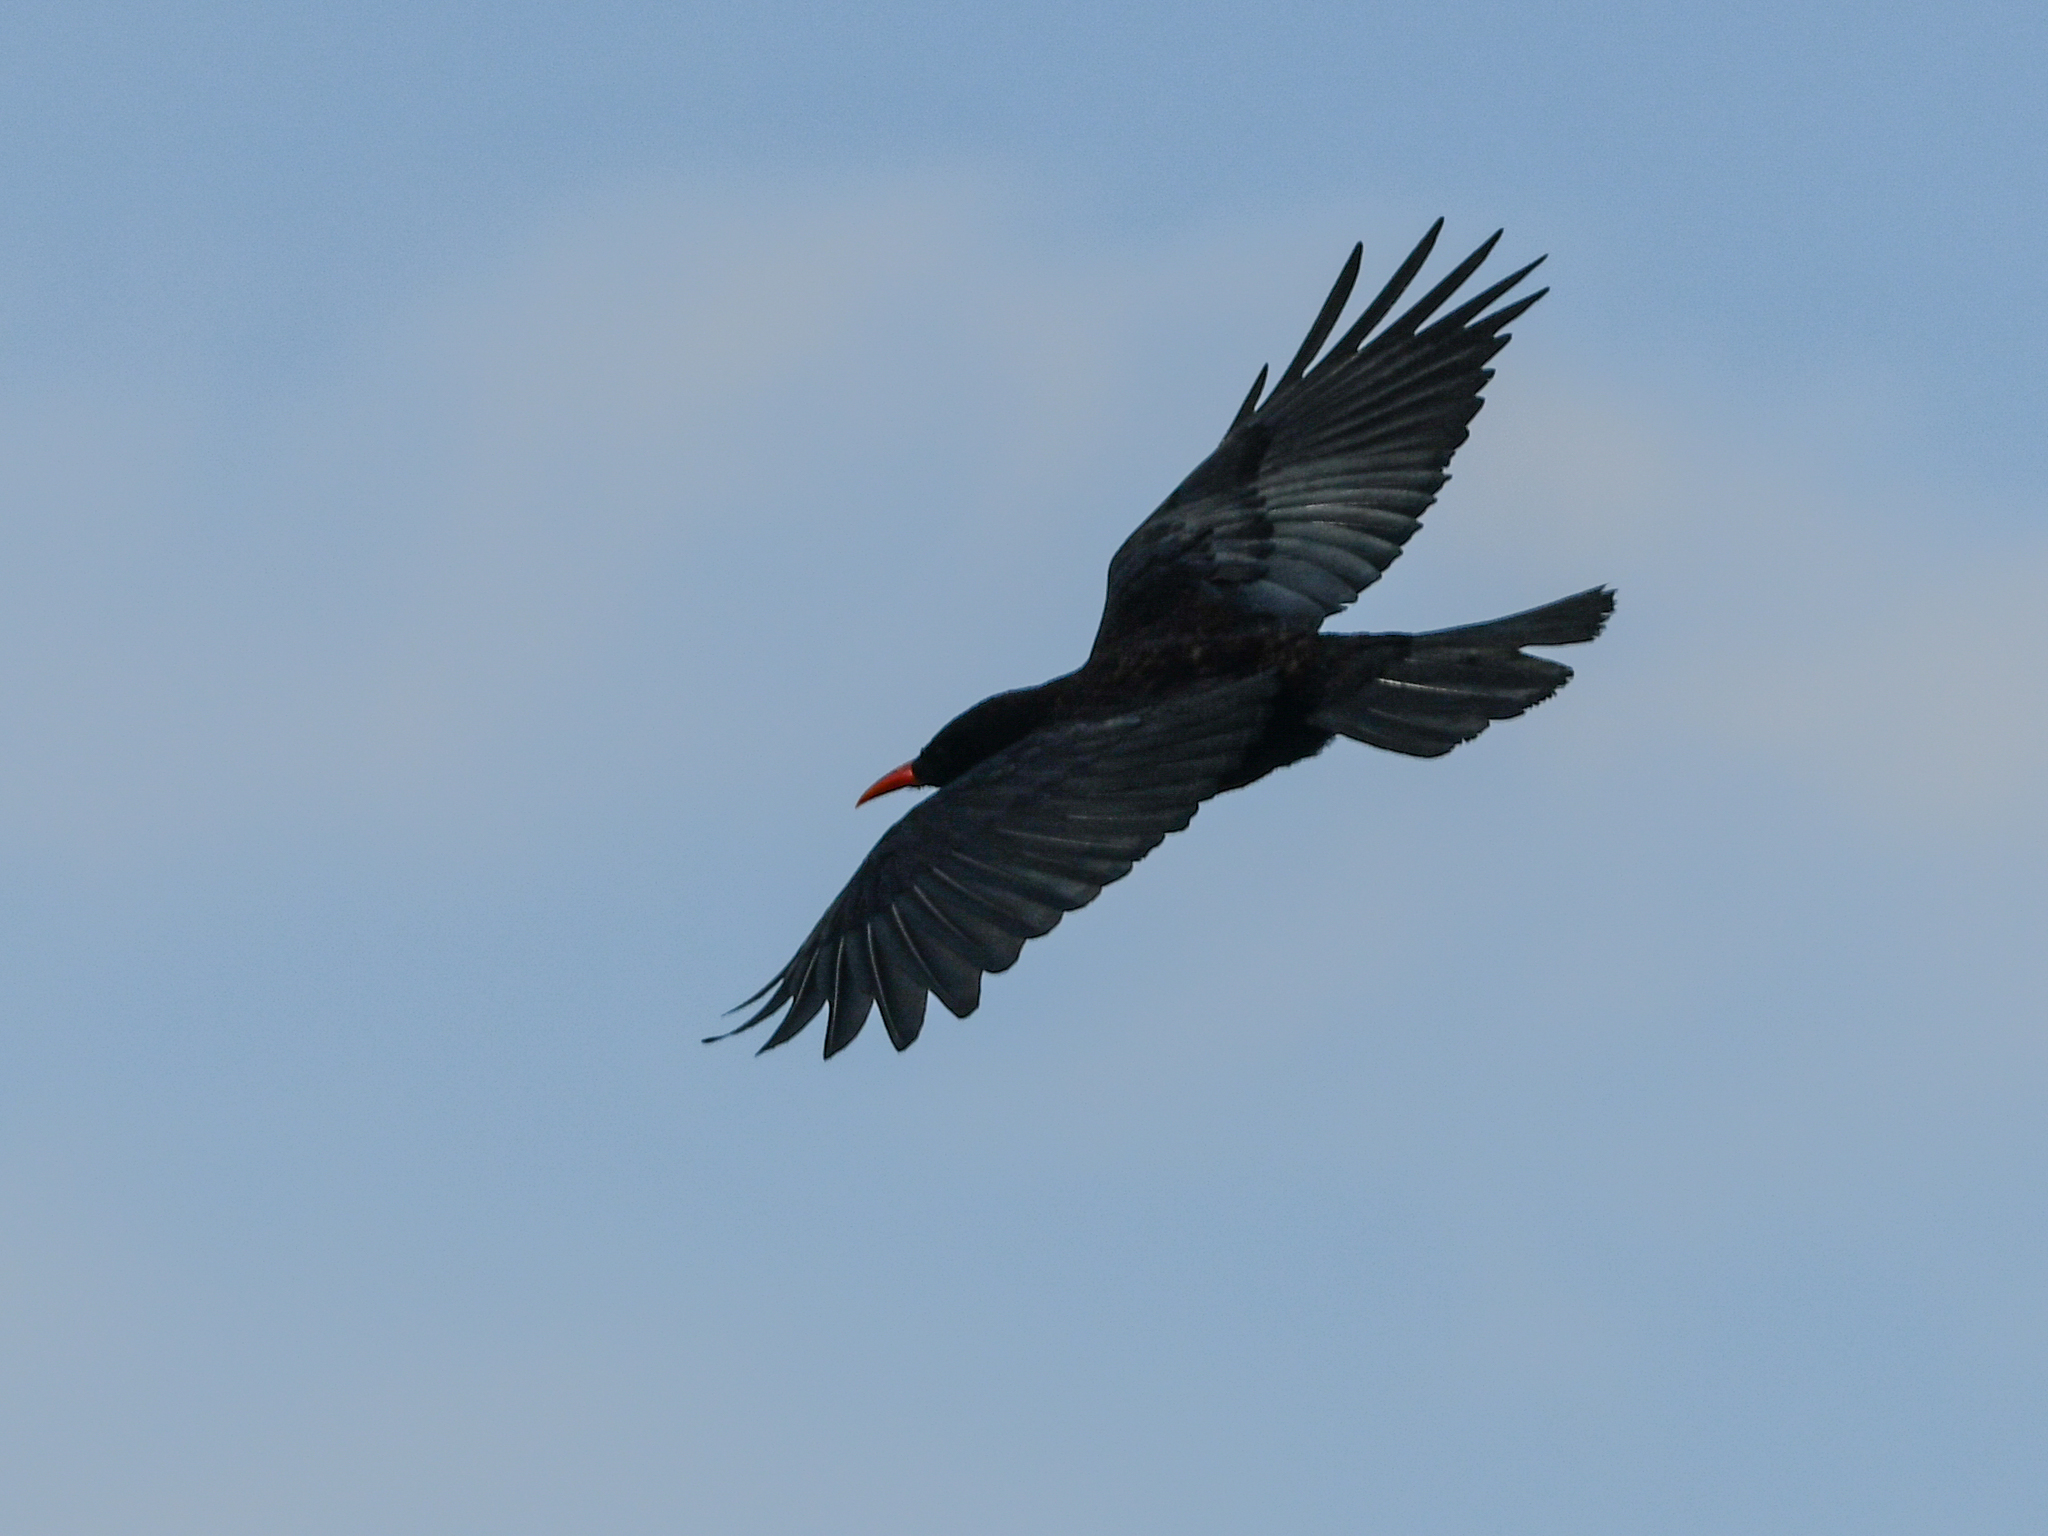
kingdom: Animalia
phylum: Chordata
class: Aves
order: Passeriformes
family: Corvidae
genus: Pyrrhocorax
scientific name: Pyrrhocorax pyrrhocorax
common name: Red-billed chough
